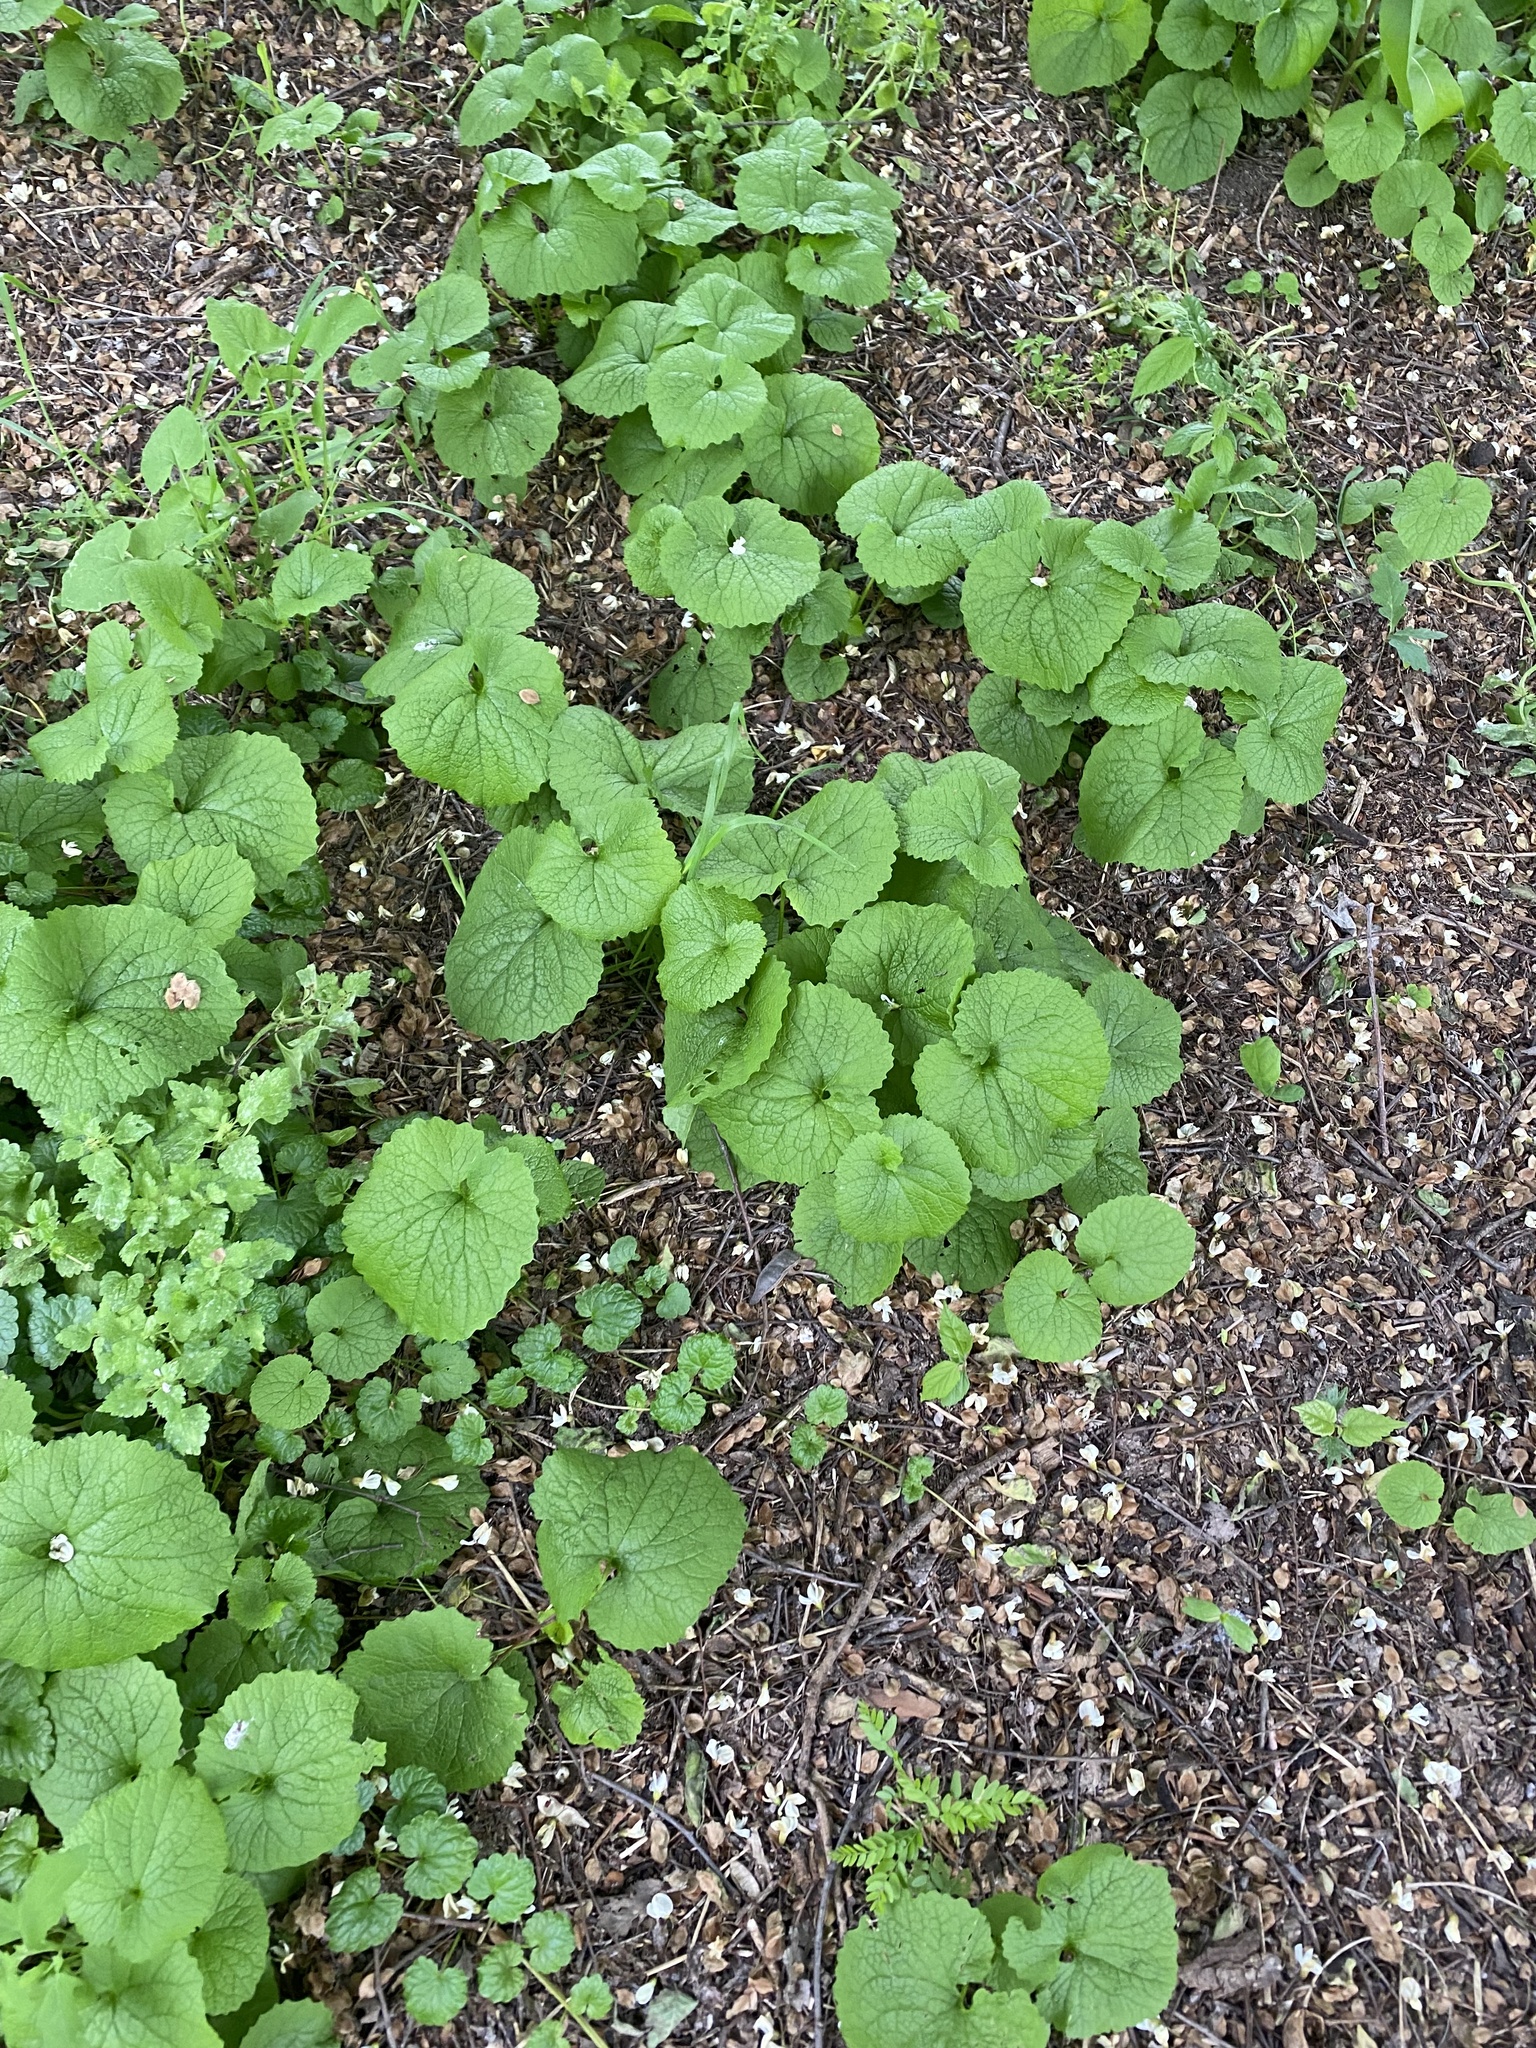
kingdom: Plantae
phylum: Tracheophyta
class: Magnoliopsida
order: Brassicales
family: Brassicaceae
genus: Alliaria
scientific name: Alliaria petiolata
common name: Garlic mustard
